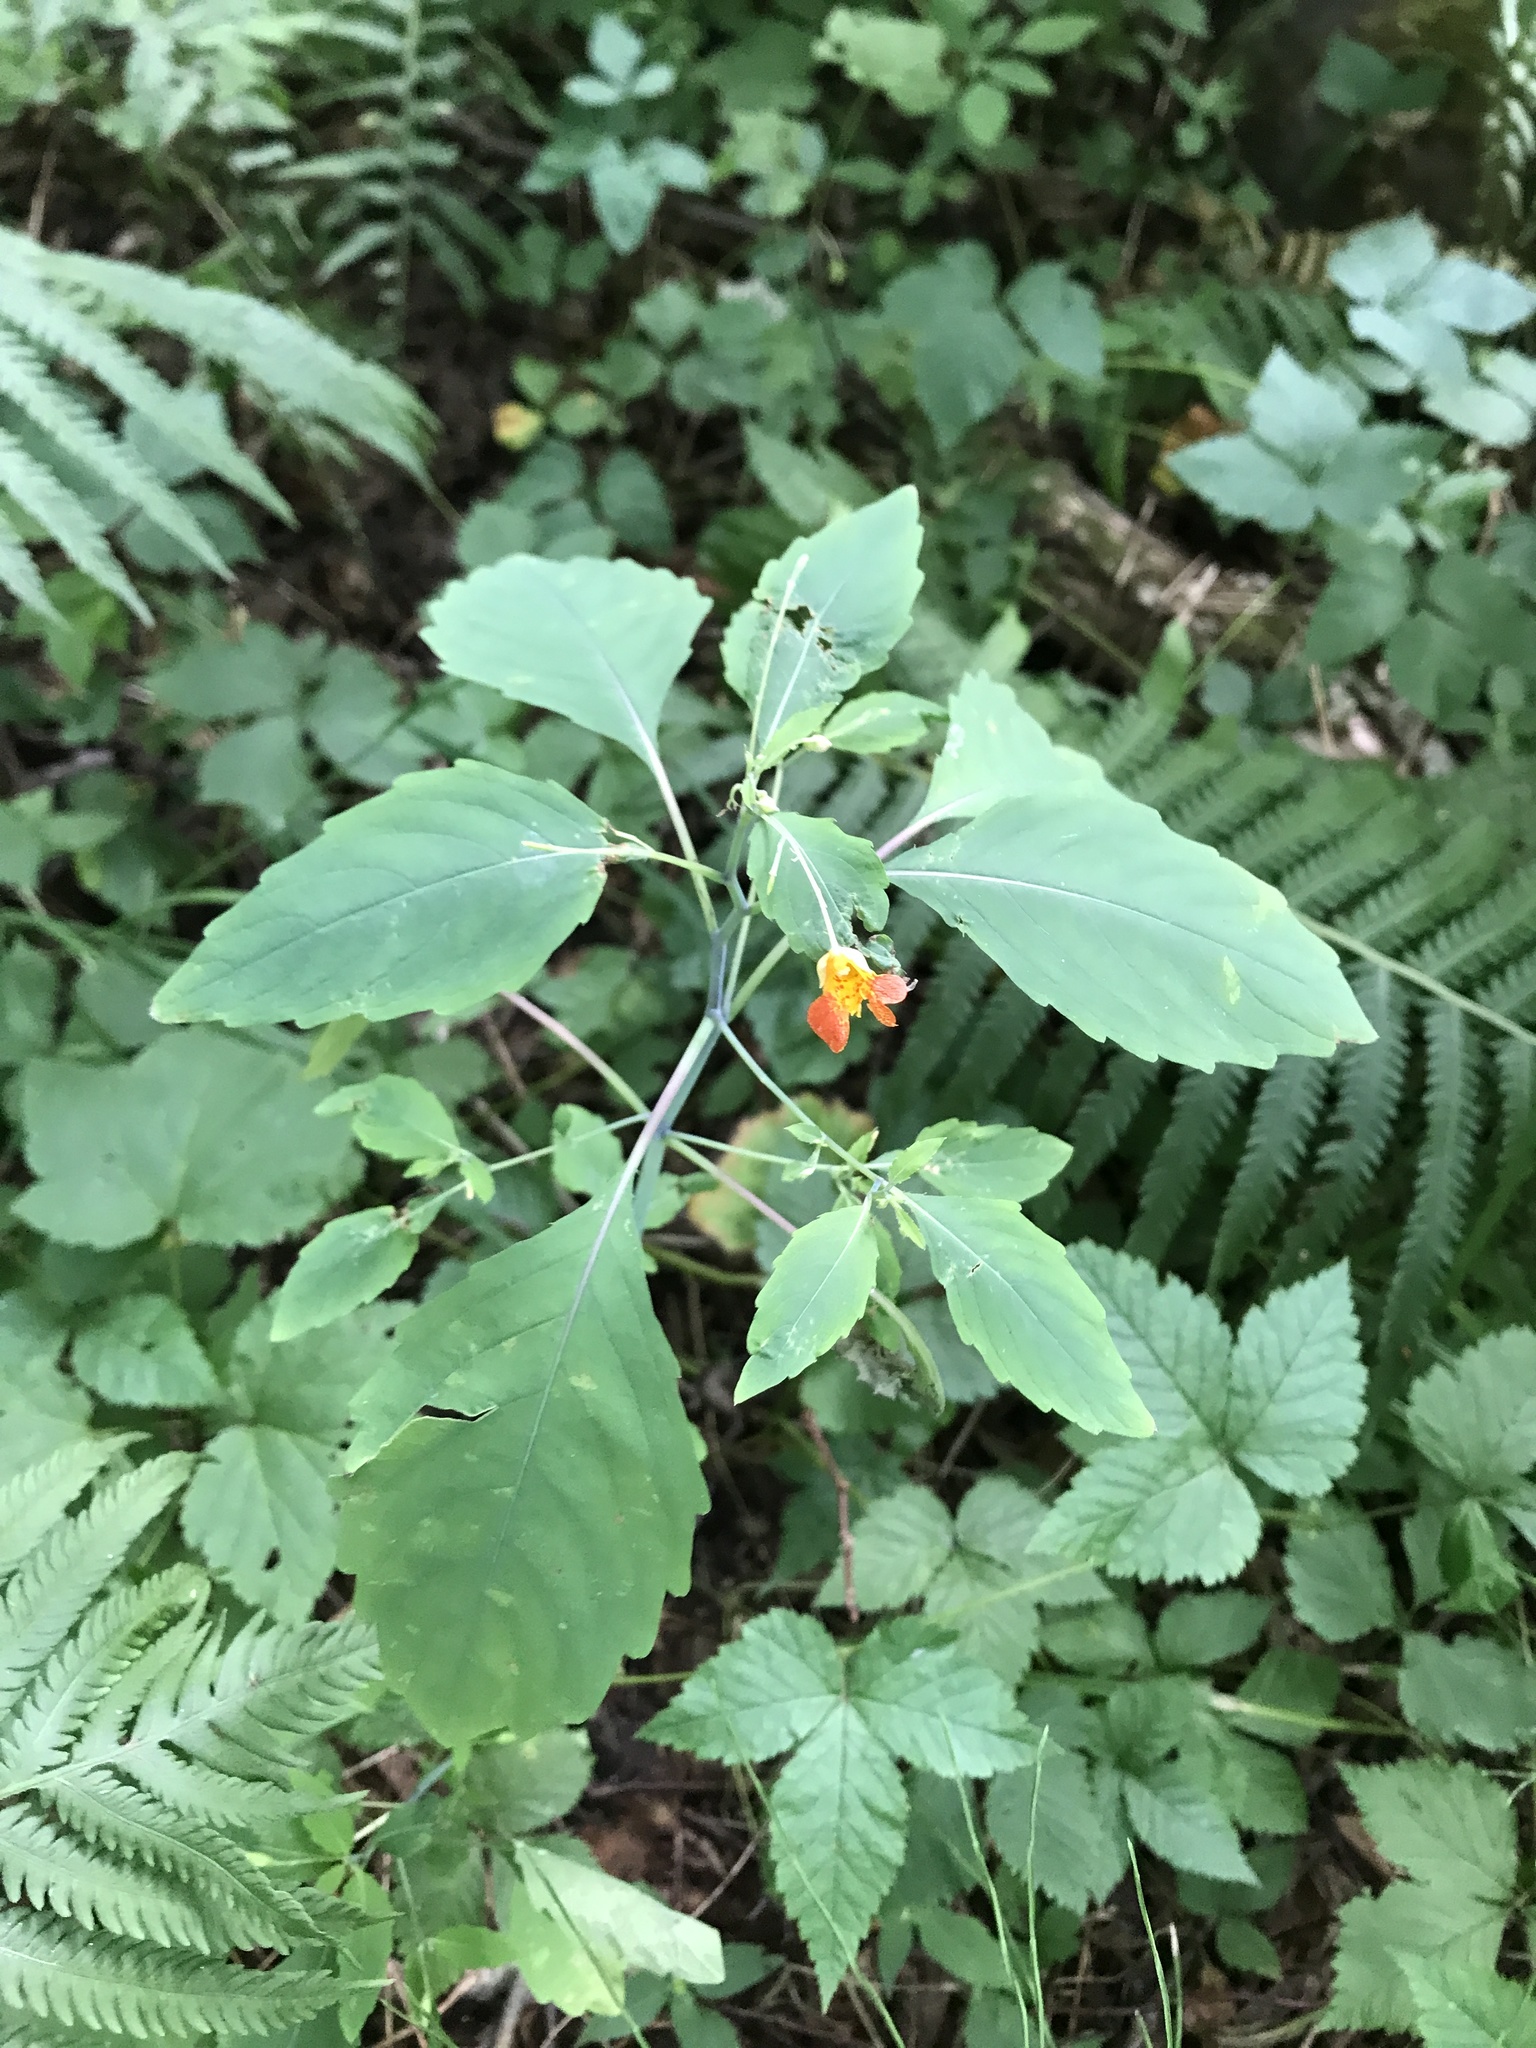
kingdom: Plantae
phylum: Tracheophyta
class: Magnoliopsida
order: Ericales
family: Balsaminaceae
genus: Impatiens
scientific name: Impatiens capensis
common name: Orange balsam
